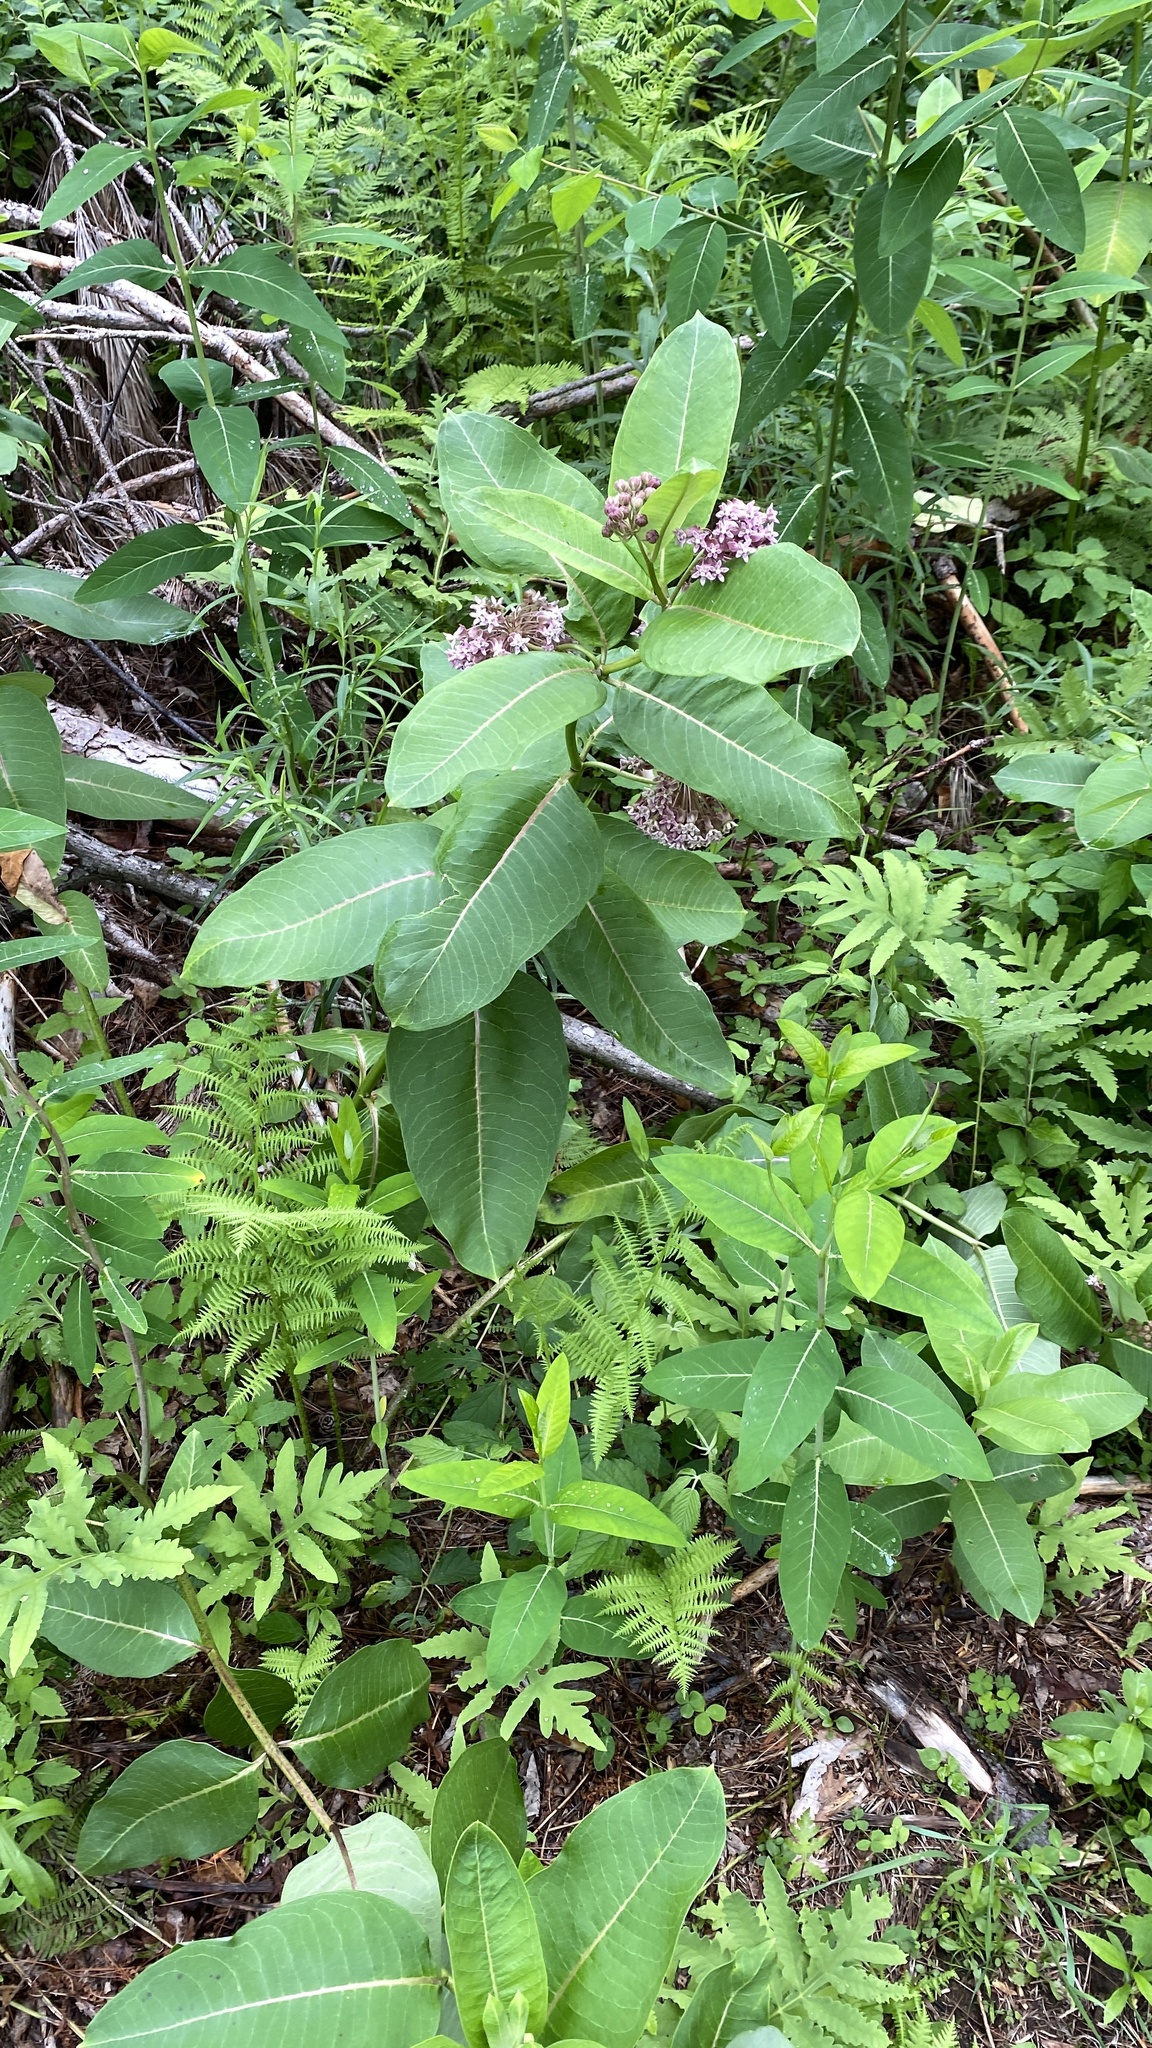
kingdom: Plantae
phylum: Tracheophyta
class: Magnoliopsida
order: Gentianales
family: Apocynaceae
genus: Asclepias
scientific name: Asclepias syriaca
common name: Common milkweed
